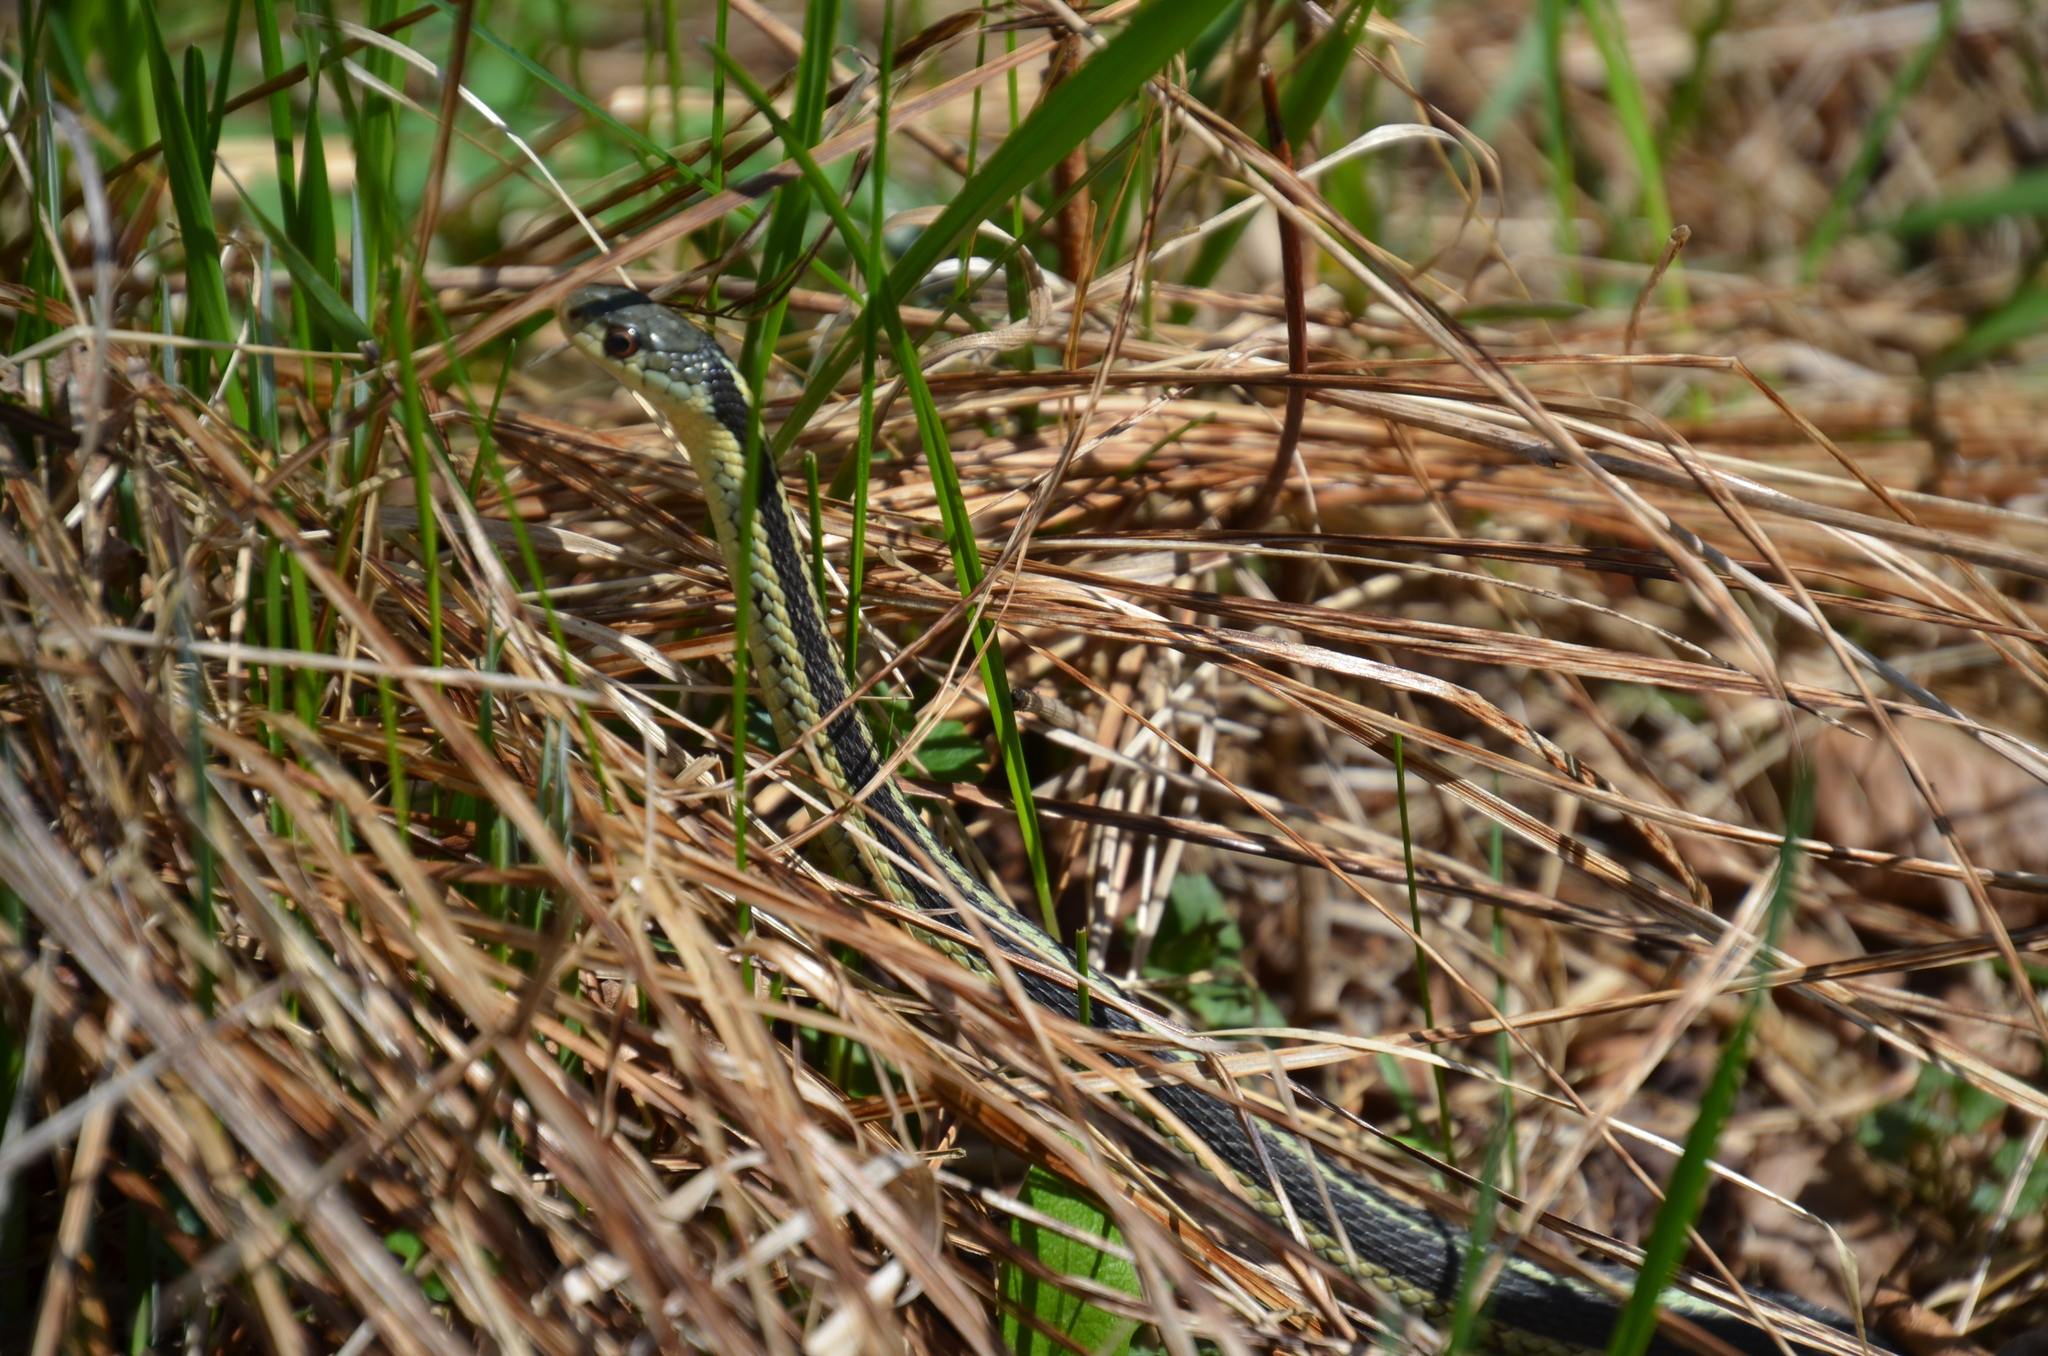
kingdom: Animalia
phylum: Chordata
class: Squamata
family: Colubridae
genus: Thamnophis
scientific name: Thamnophis sirtalis
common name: Common garter snake
